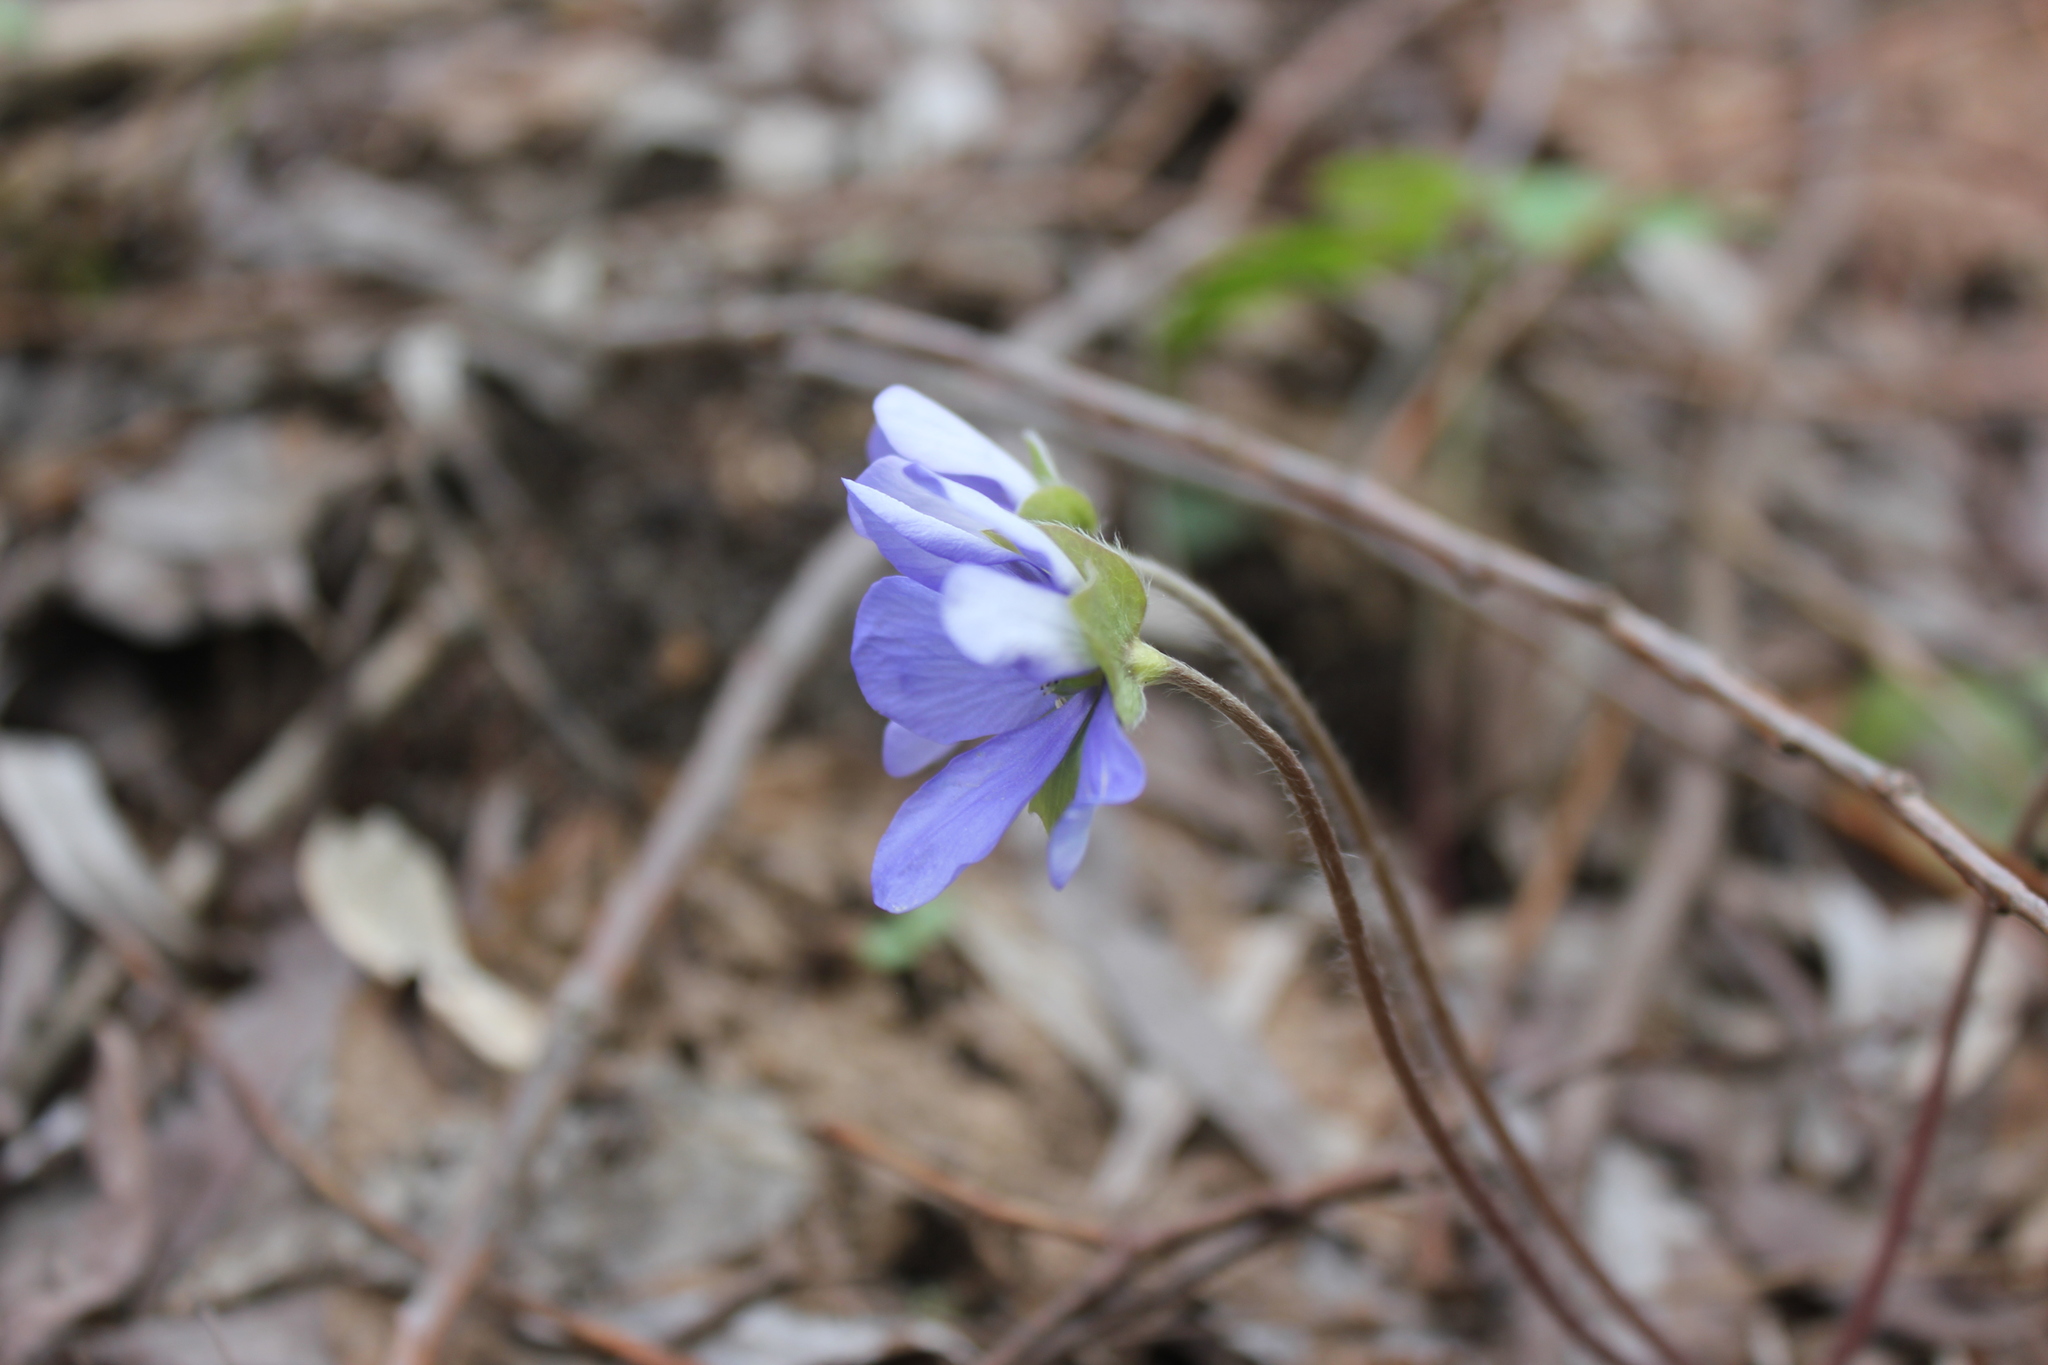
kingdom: Plantae
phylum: Tracheophyta
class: Magnoliopsida
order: Ranunculales
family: Ranunculaceae
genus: Hepatica
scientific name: Hepatica nobilis
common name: Liverleaf
